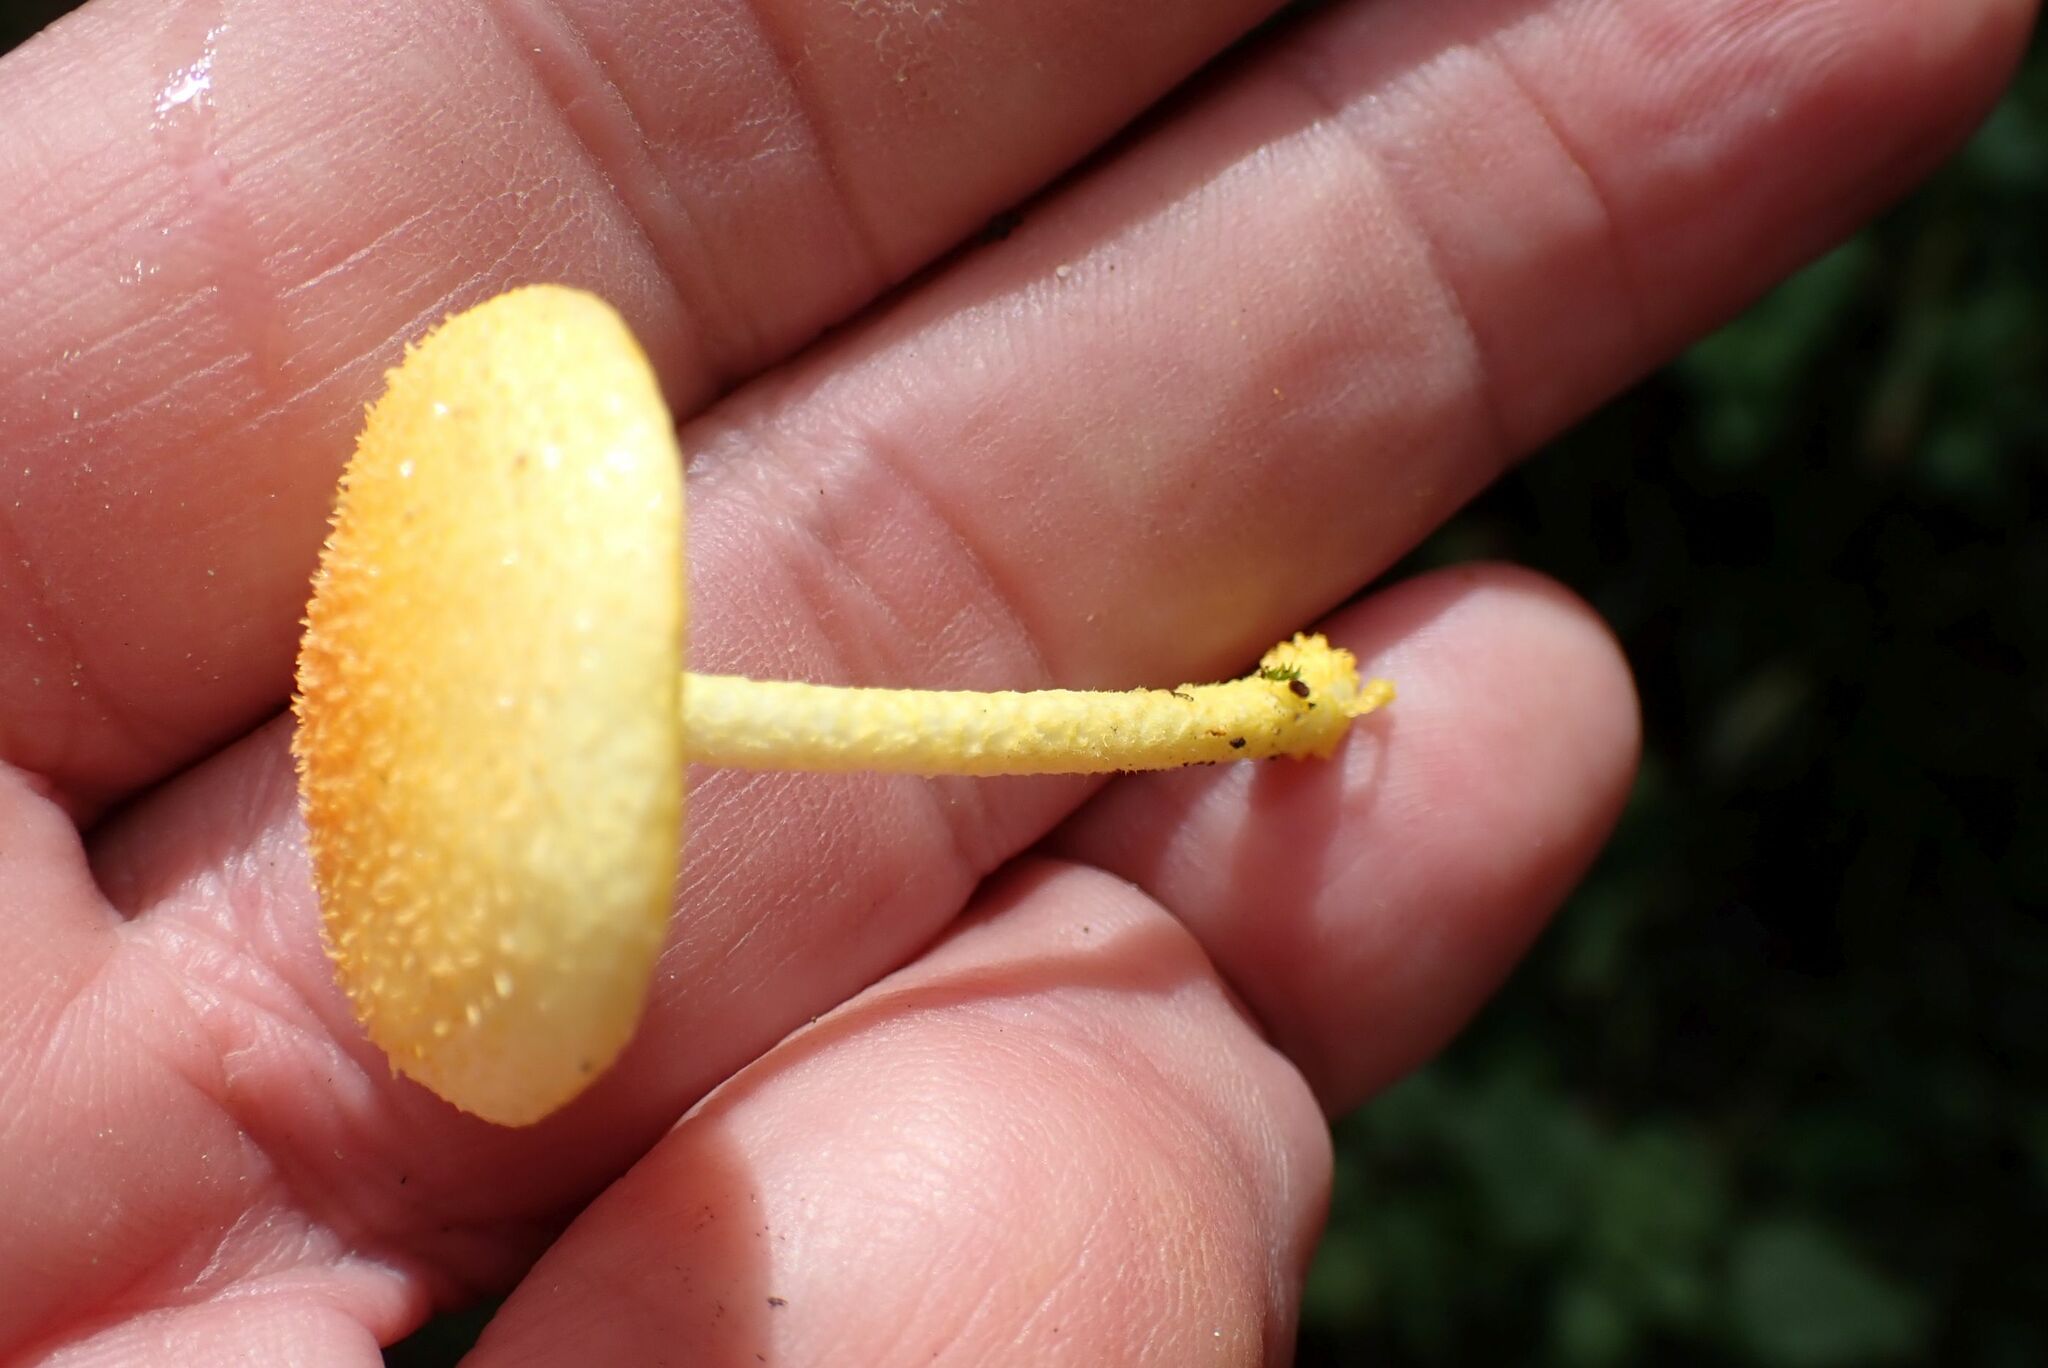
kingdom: Fungi
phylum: Basidiomycota
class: Agaricomycetes
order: Agaricales
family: Physalacriaceae
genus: Cyptotrama
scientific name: Cyptotrama asprata
